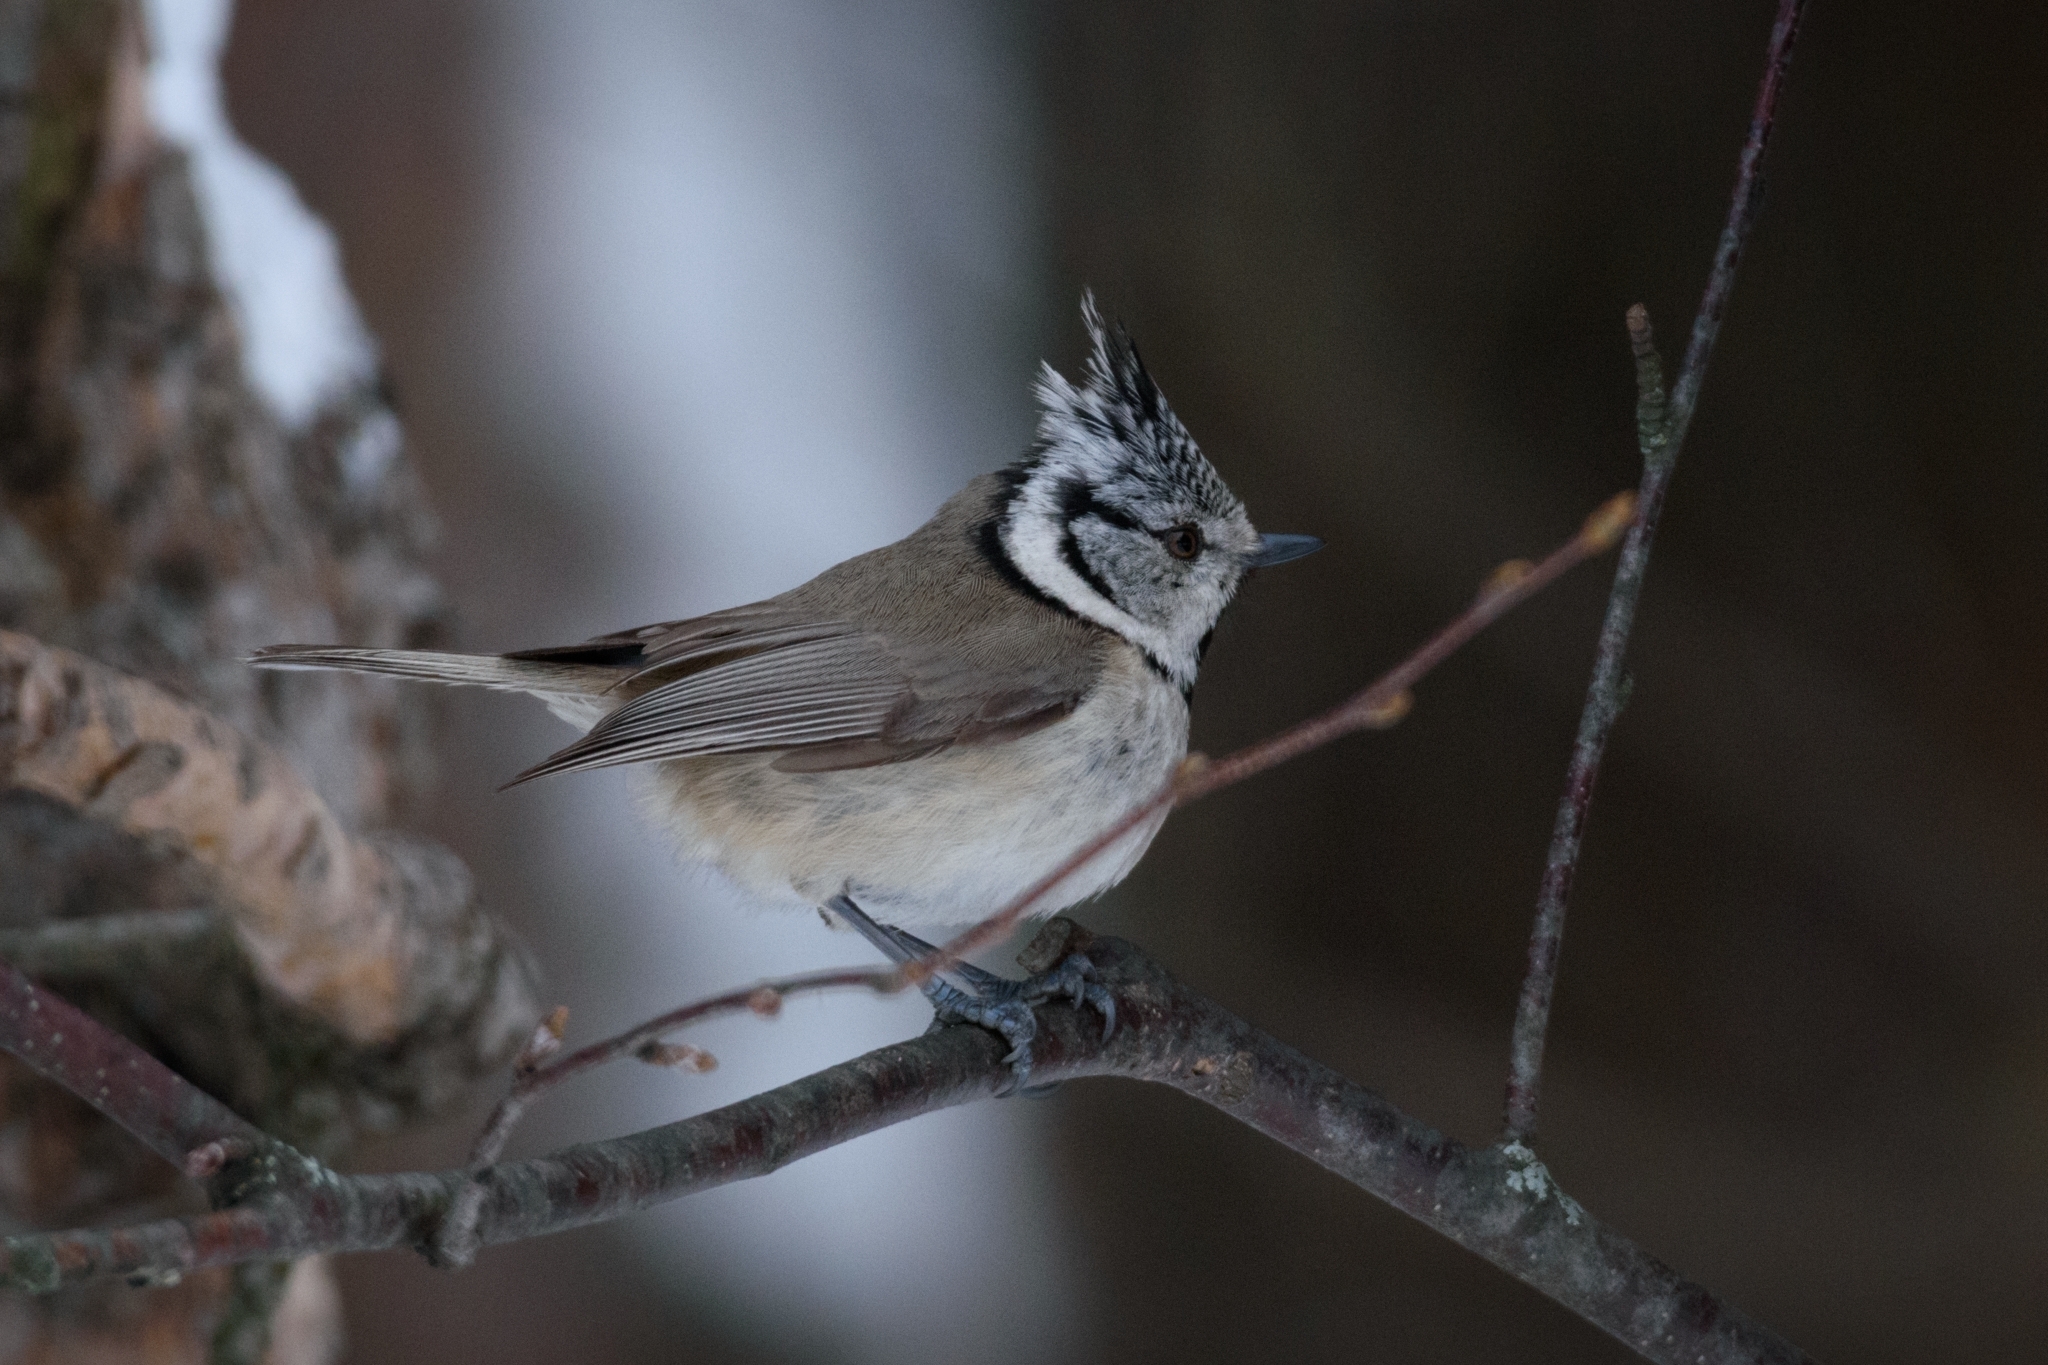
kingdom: Animalia
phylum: Chordata
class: Aves
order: Passeriformes
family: Paridae
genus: Lophophanes
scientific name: Lophophanes cristatus
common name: European crested tit
